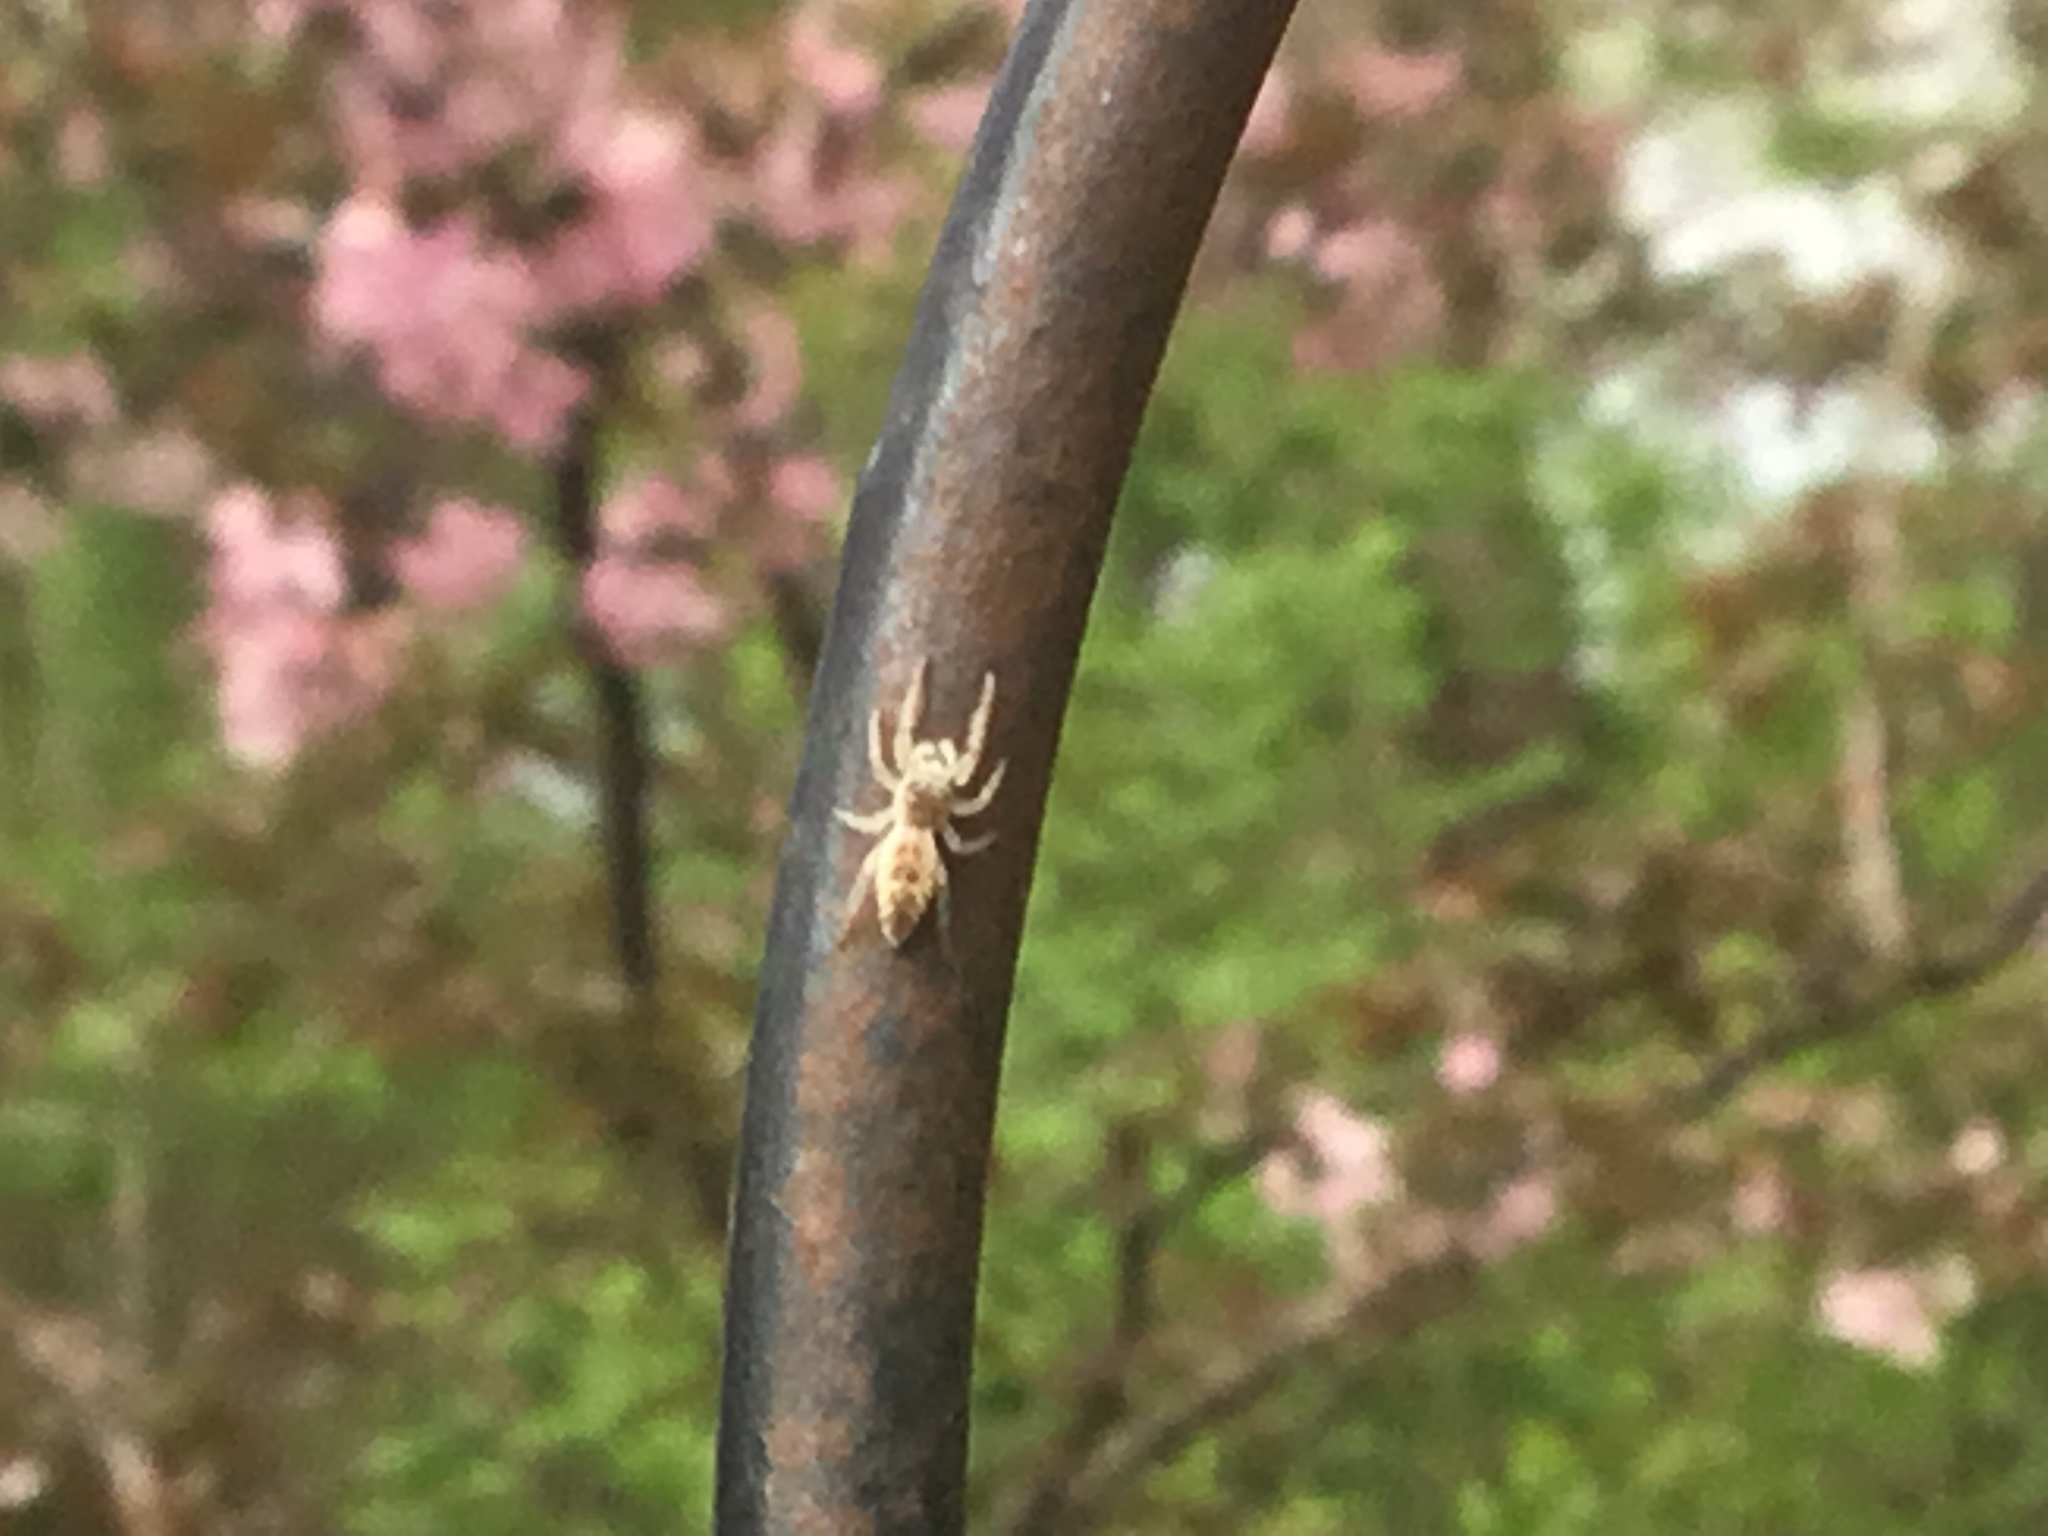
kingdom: Animalia
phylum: Arthropoda
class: Arachnida
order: Araneae
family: Salticidae
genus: Hentzia
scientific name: Hentzia mitrata
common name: White-jawed jumping spider
